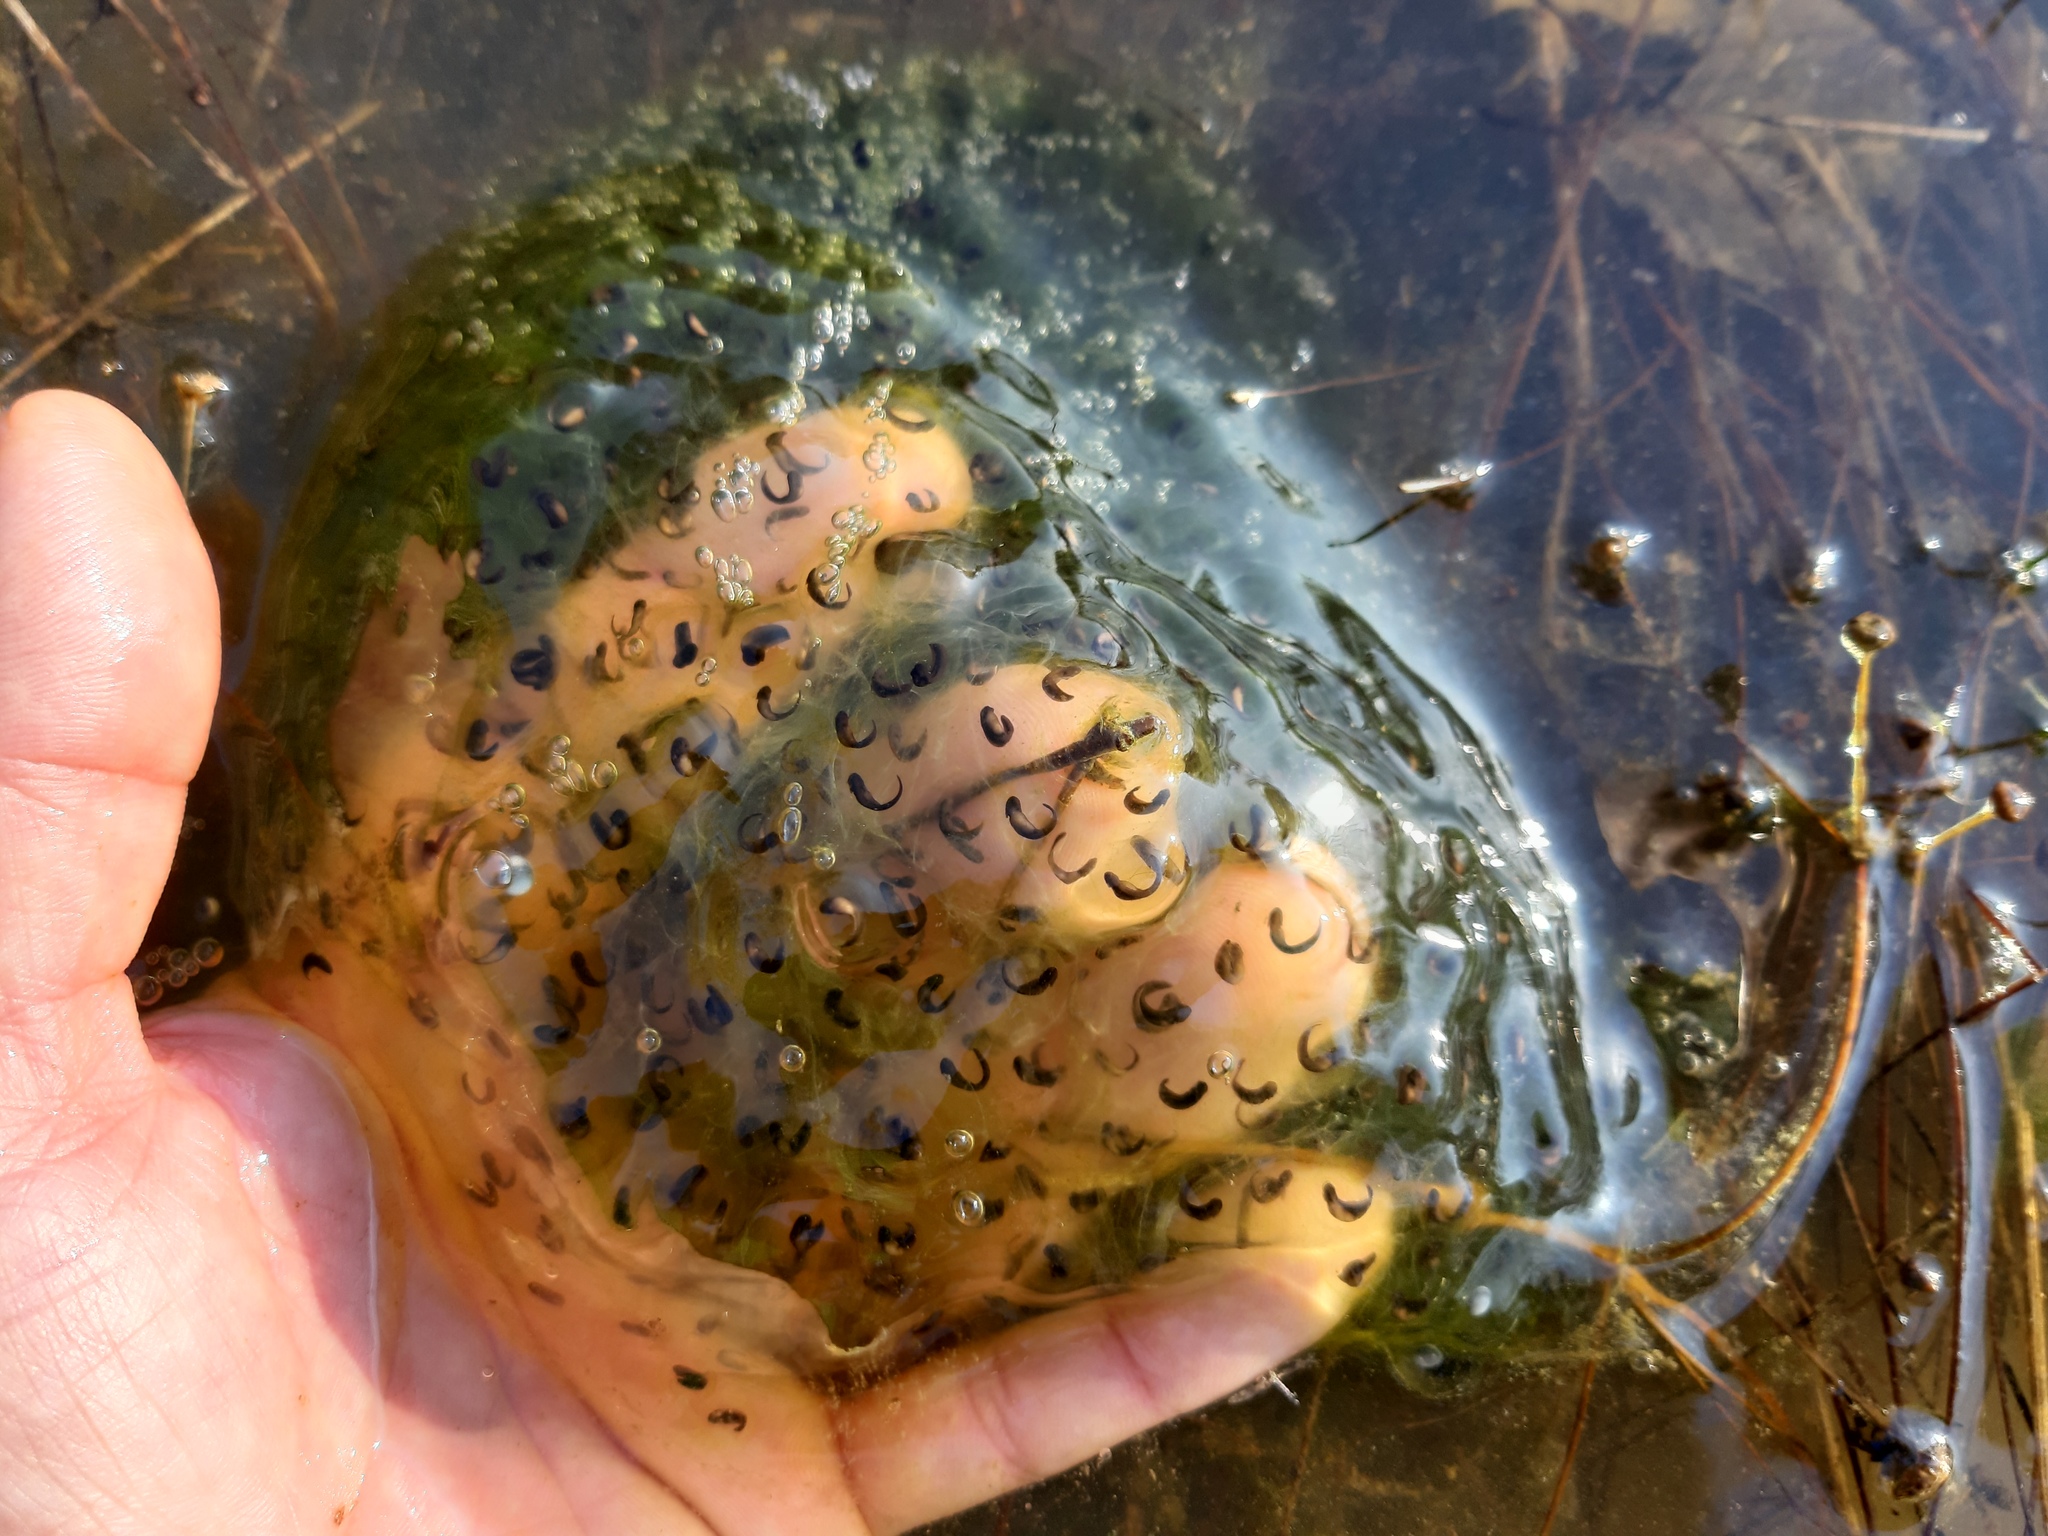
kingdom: Animalia
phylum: Chordata
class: Amphibia
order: Anura
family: Ranidae
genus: Rana
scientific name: Rana dalmatina
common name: Agile frog
